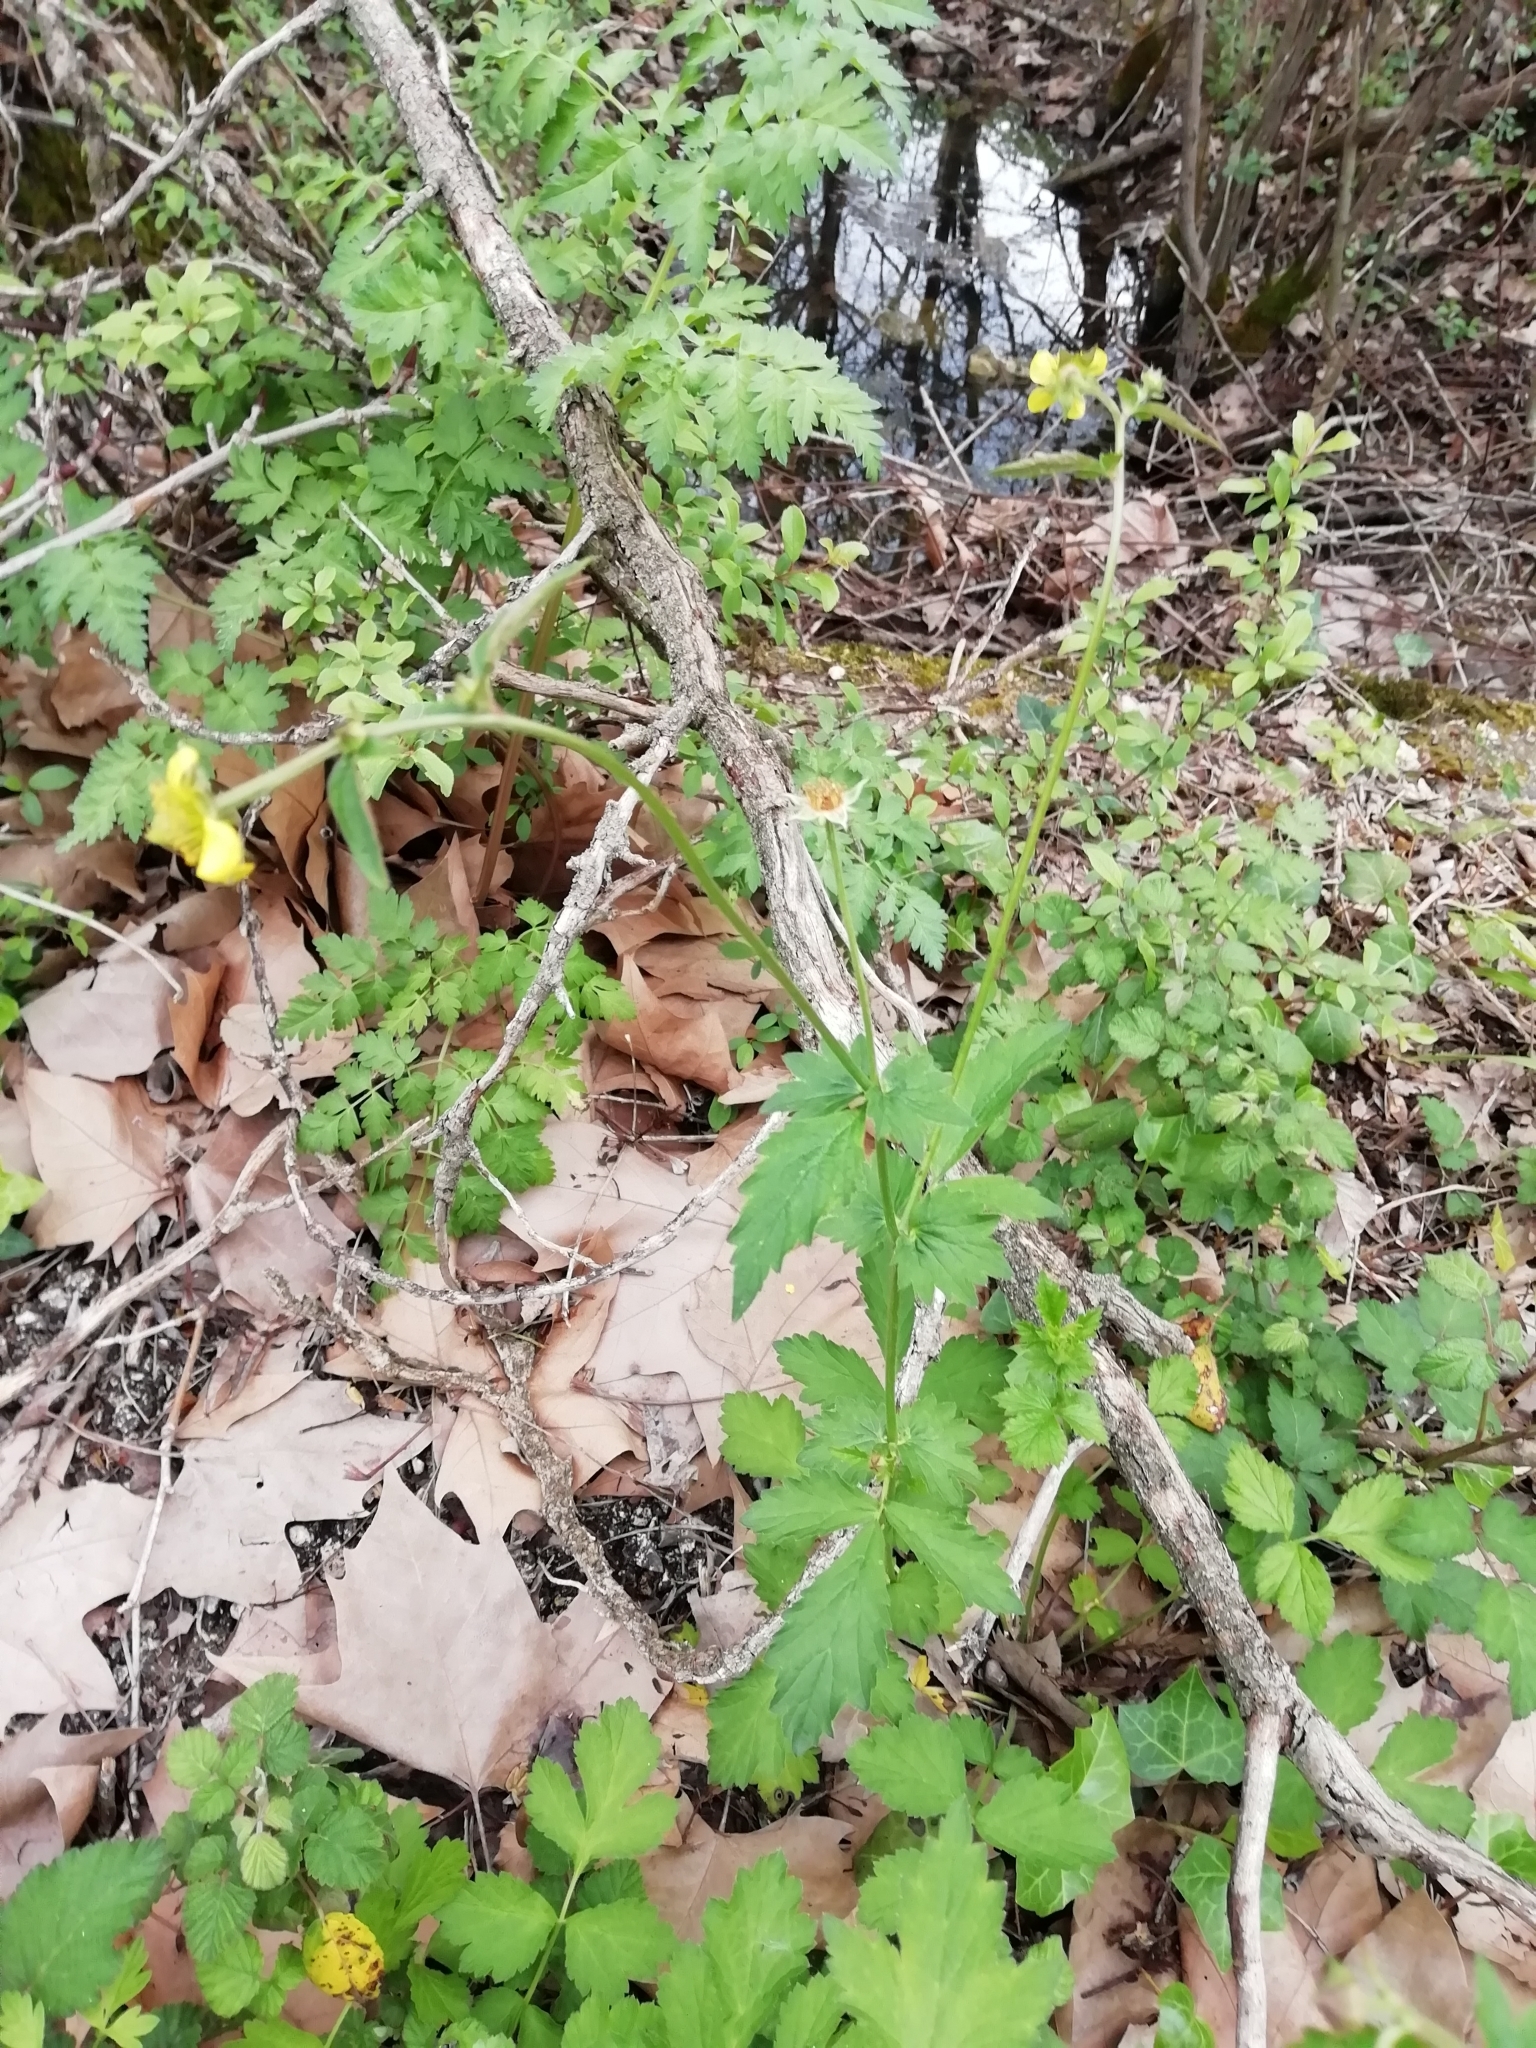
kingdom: Plantae
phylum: Tracheophyta
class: Magnoliopsida
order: Rosales
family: Rosaceae
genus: Geum
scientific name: Geum urbanum
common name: Wood avens
